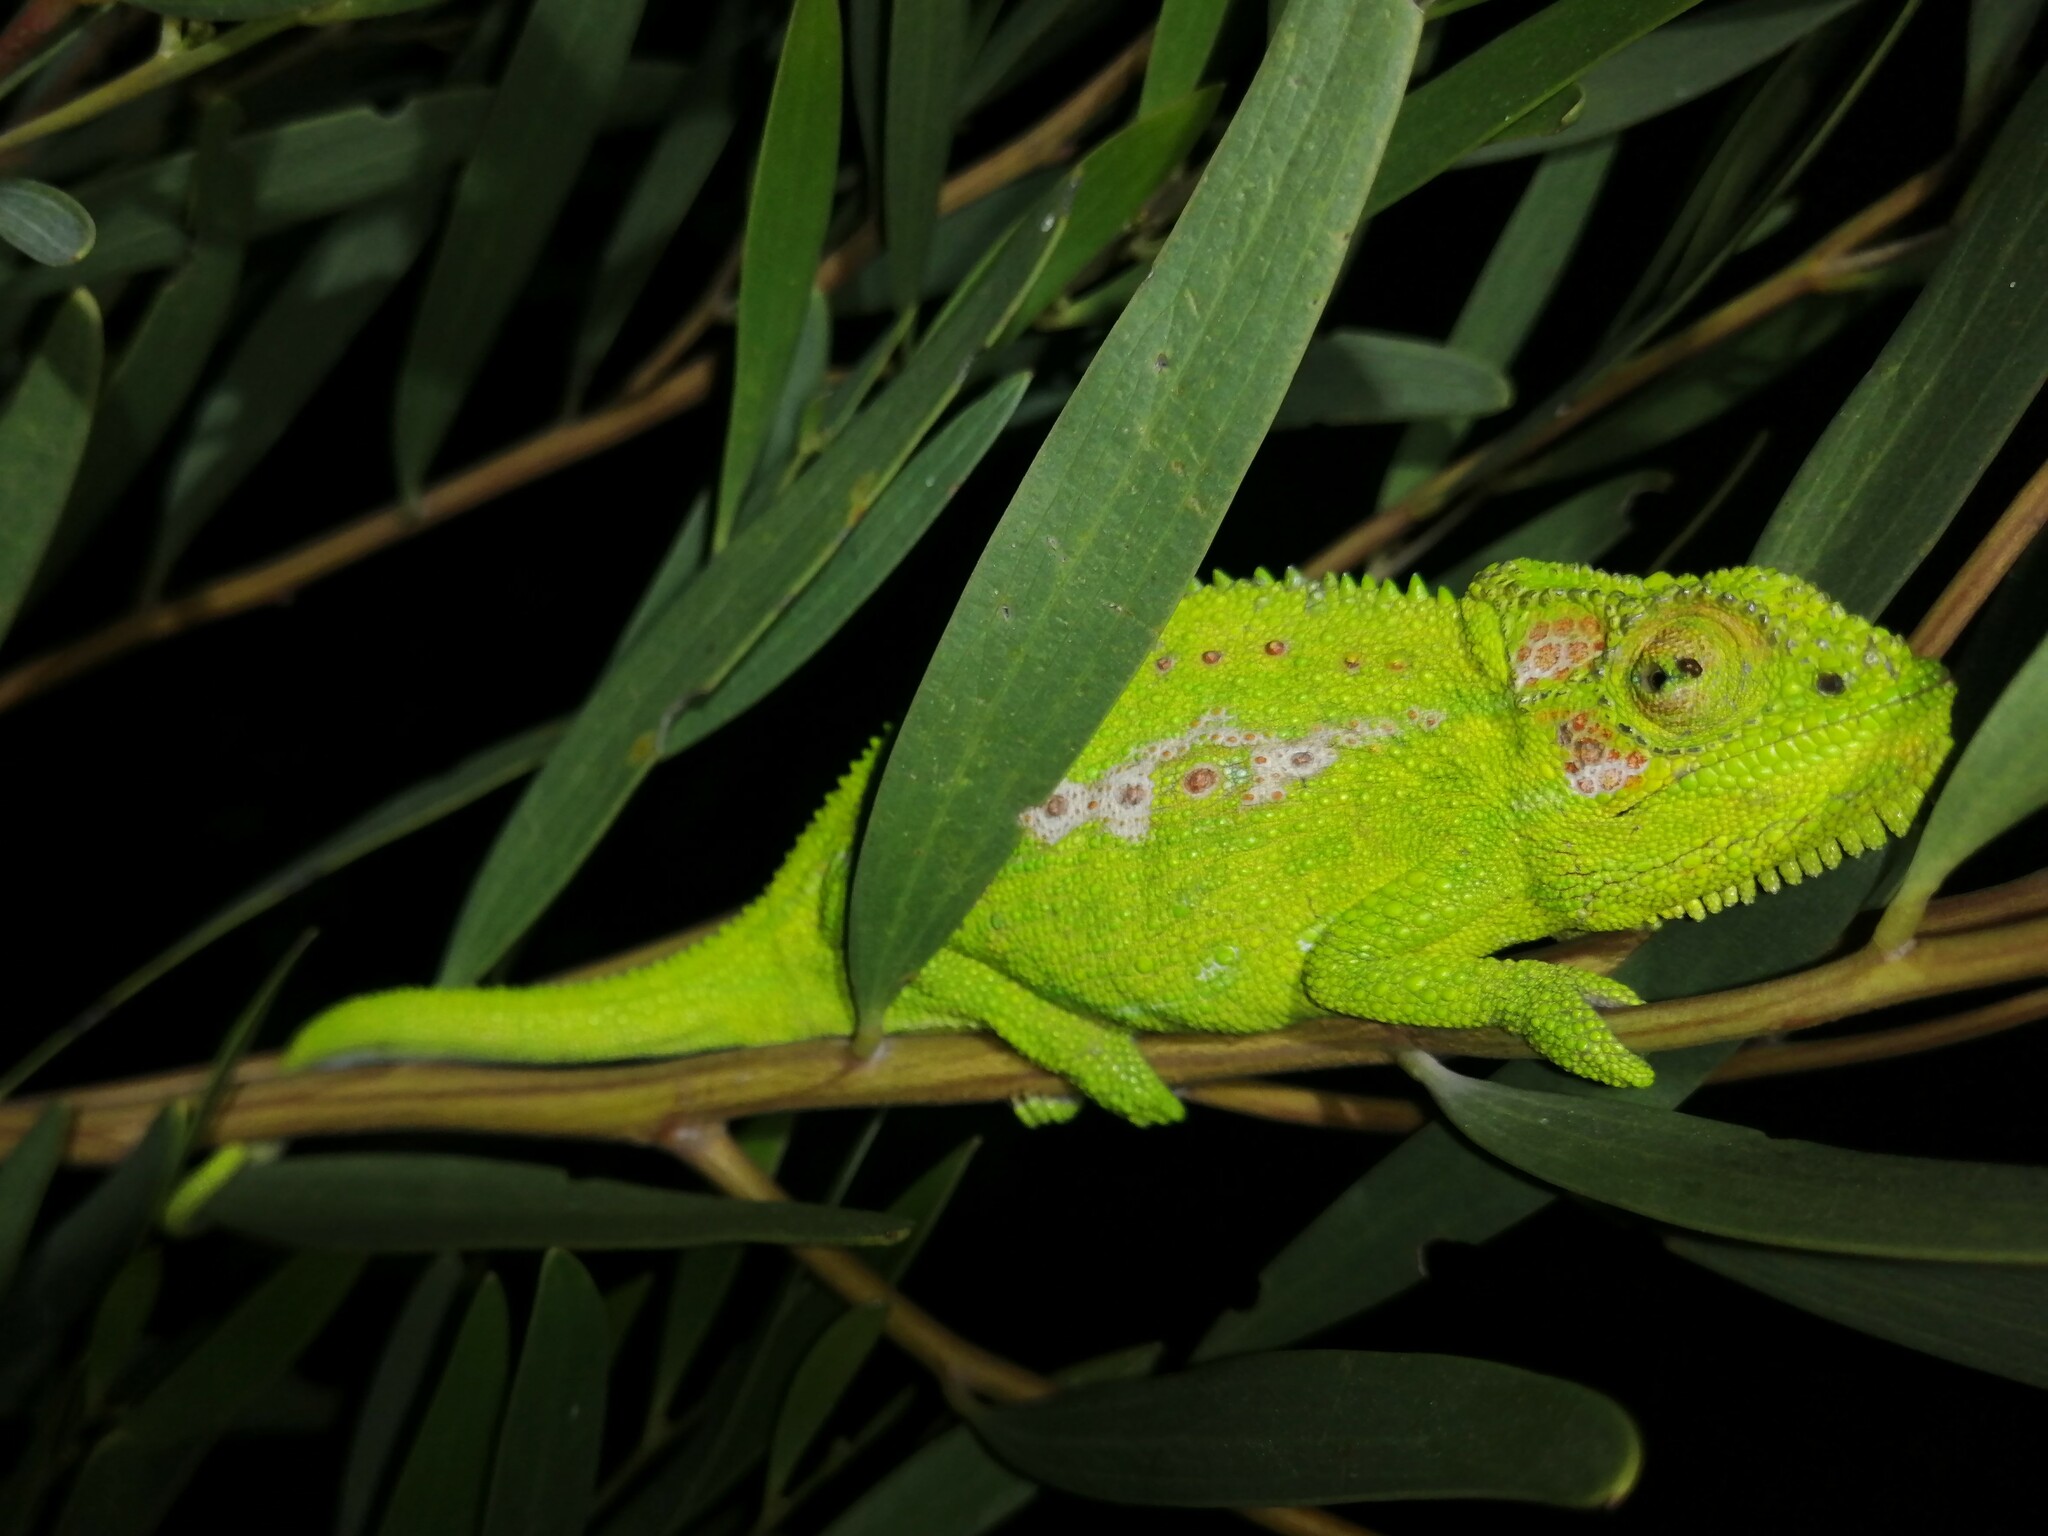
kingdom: Animalia
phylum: Chordata
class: Squamata
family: Chamaeleonidae
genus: Bradypodion
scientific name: Bradypodion pumilum
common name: Cape dwarf chameleon
